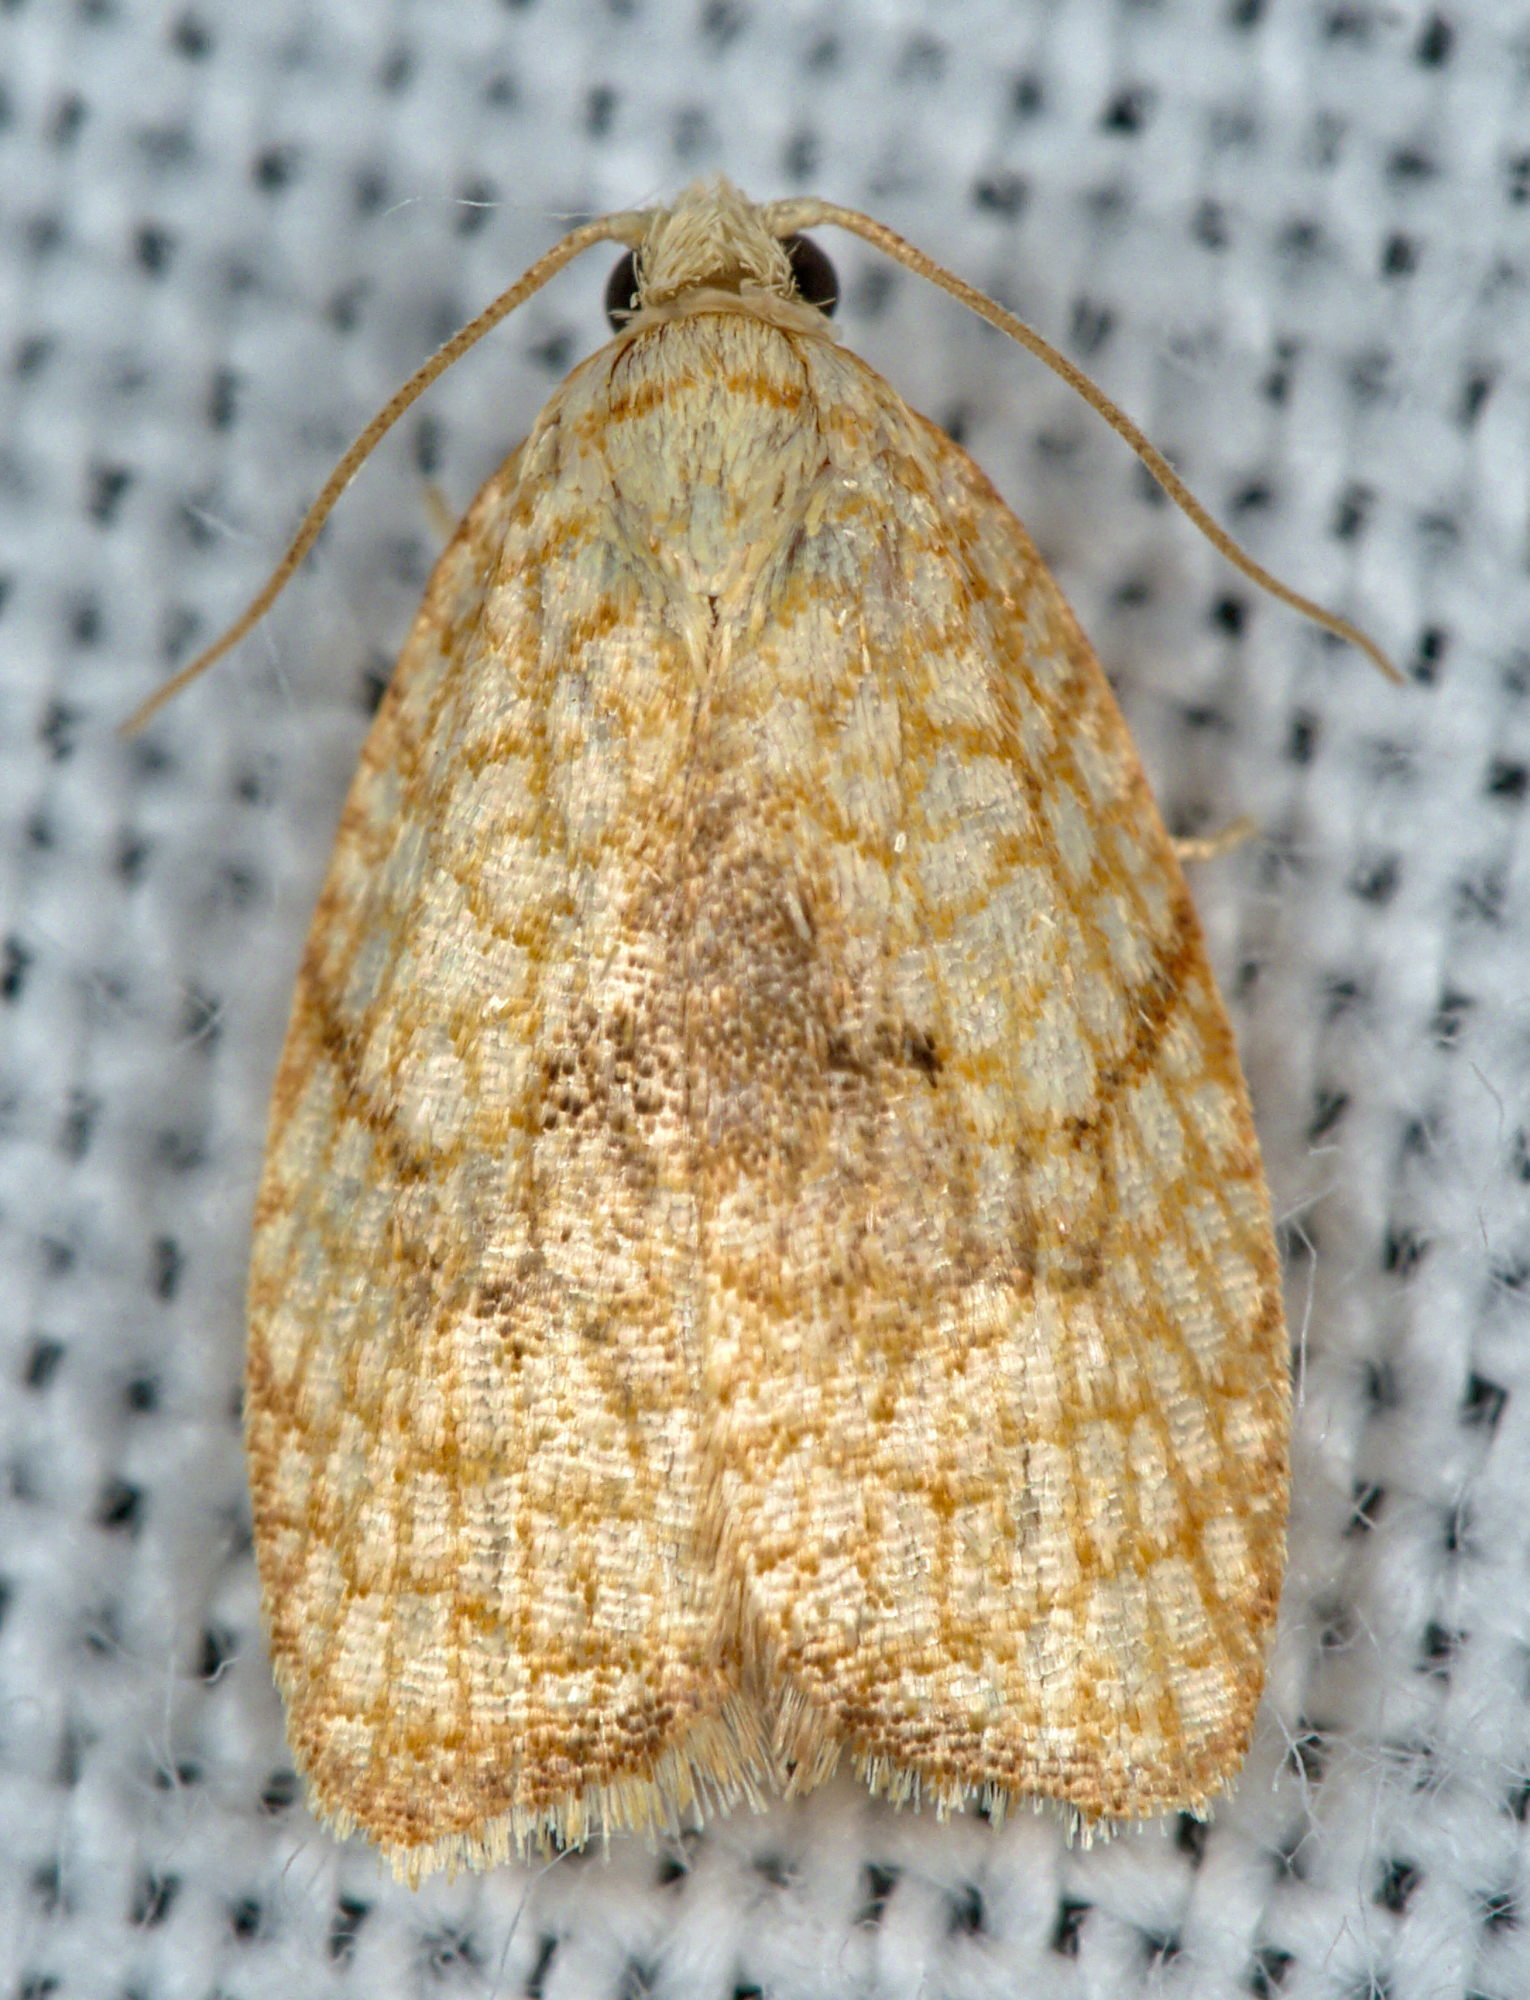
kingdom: Animalia
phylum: Arthropoda
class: Insecta
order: Lepidoptera
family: Tortricidae
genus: Acleris
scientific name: Acleris forsskaleana
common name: Maple button
